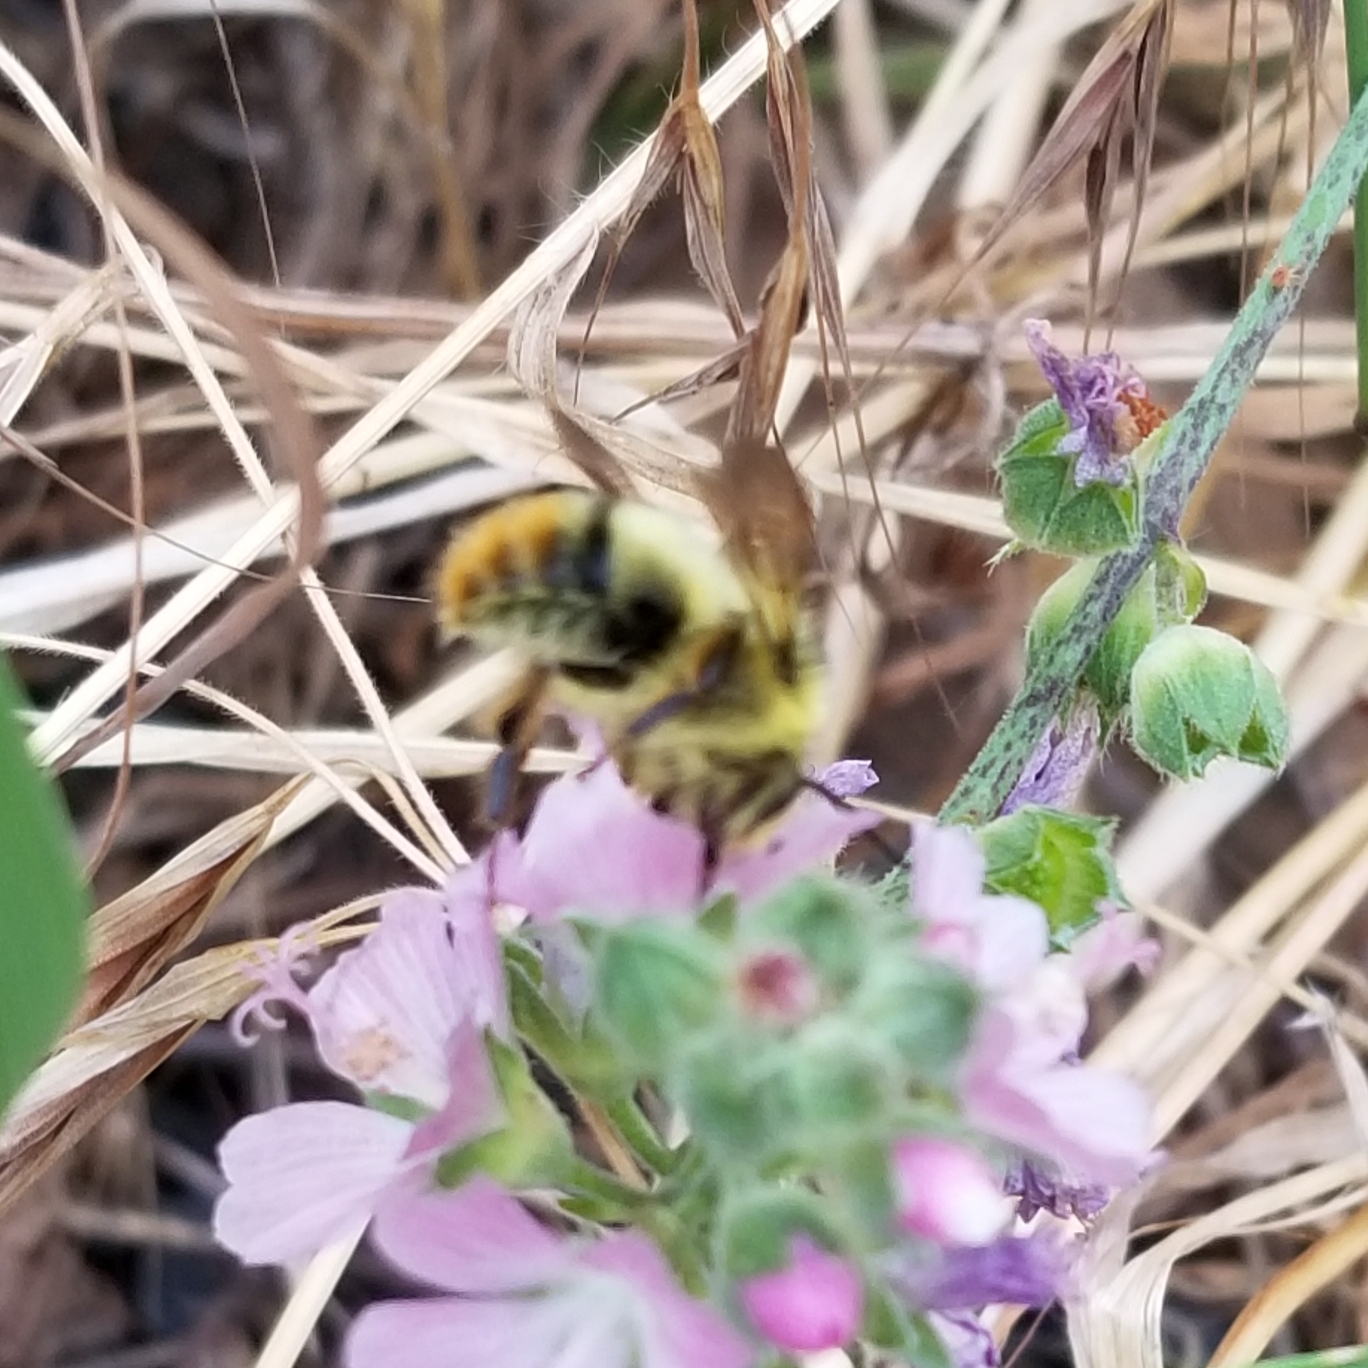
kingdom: Animalia
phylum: Arthropoda
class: Insecta
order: Hymenoptera
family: Apidae
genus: Bombus
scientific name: Bombus mixtus
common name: Fuzzy-horned bumble bee
